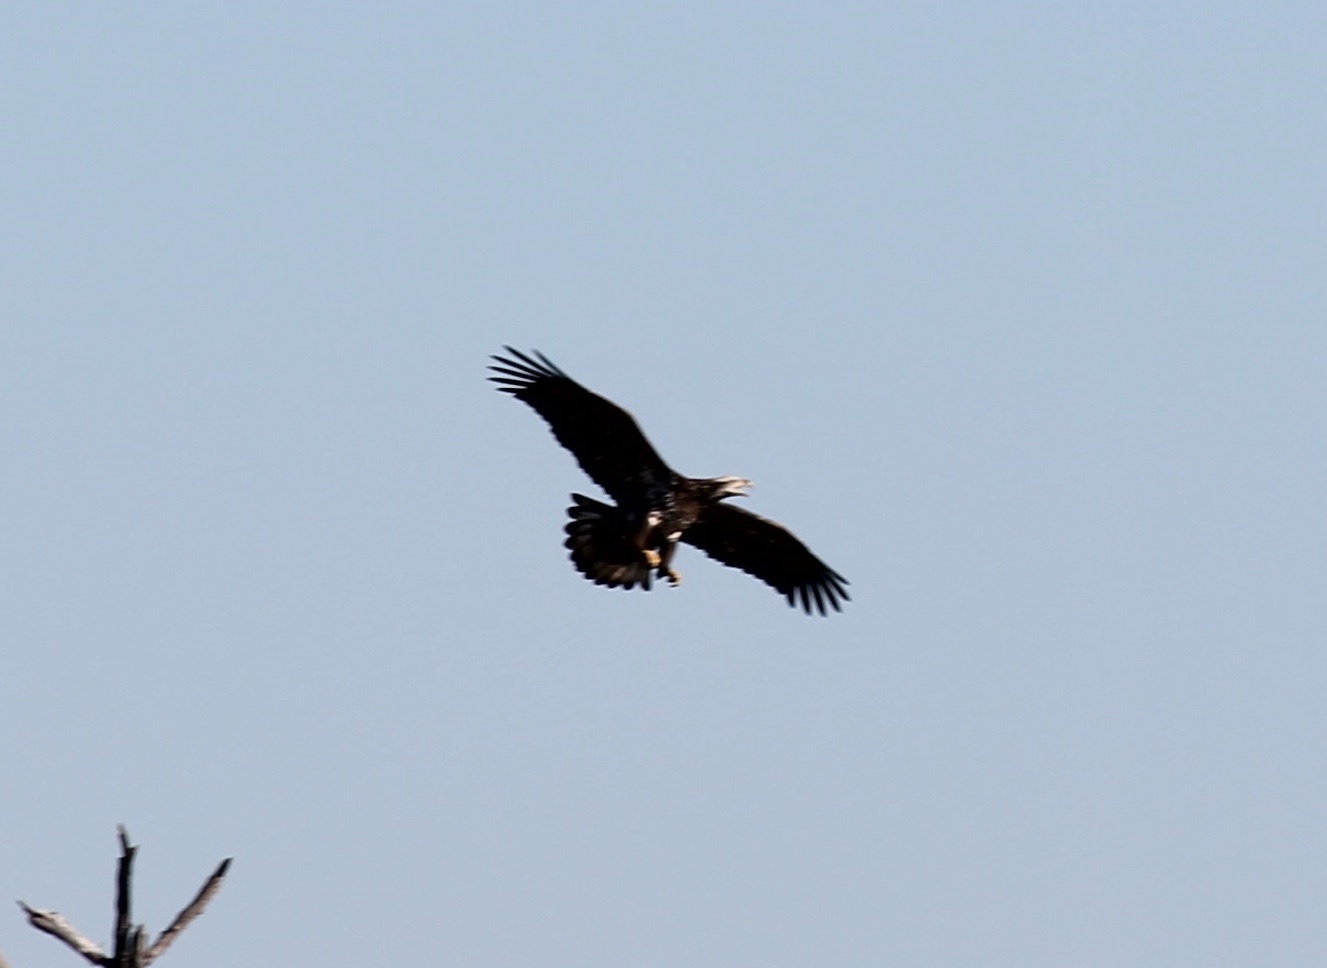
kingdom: Animalia
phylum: Chordata
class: Aves
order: Accipitriformes
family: Accipitridae
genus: Haliaeetus
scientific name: Haliaeetus leucocephalus
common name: Bald eagle
